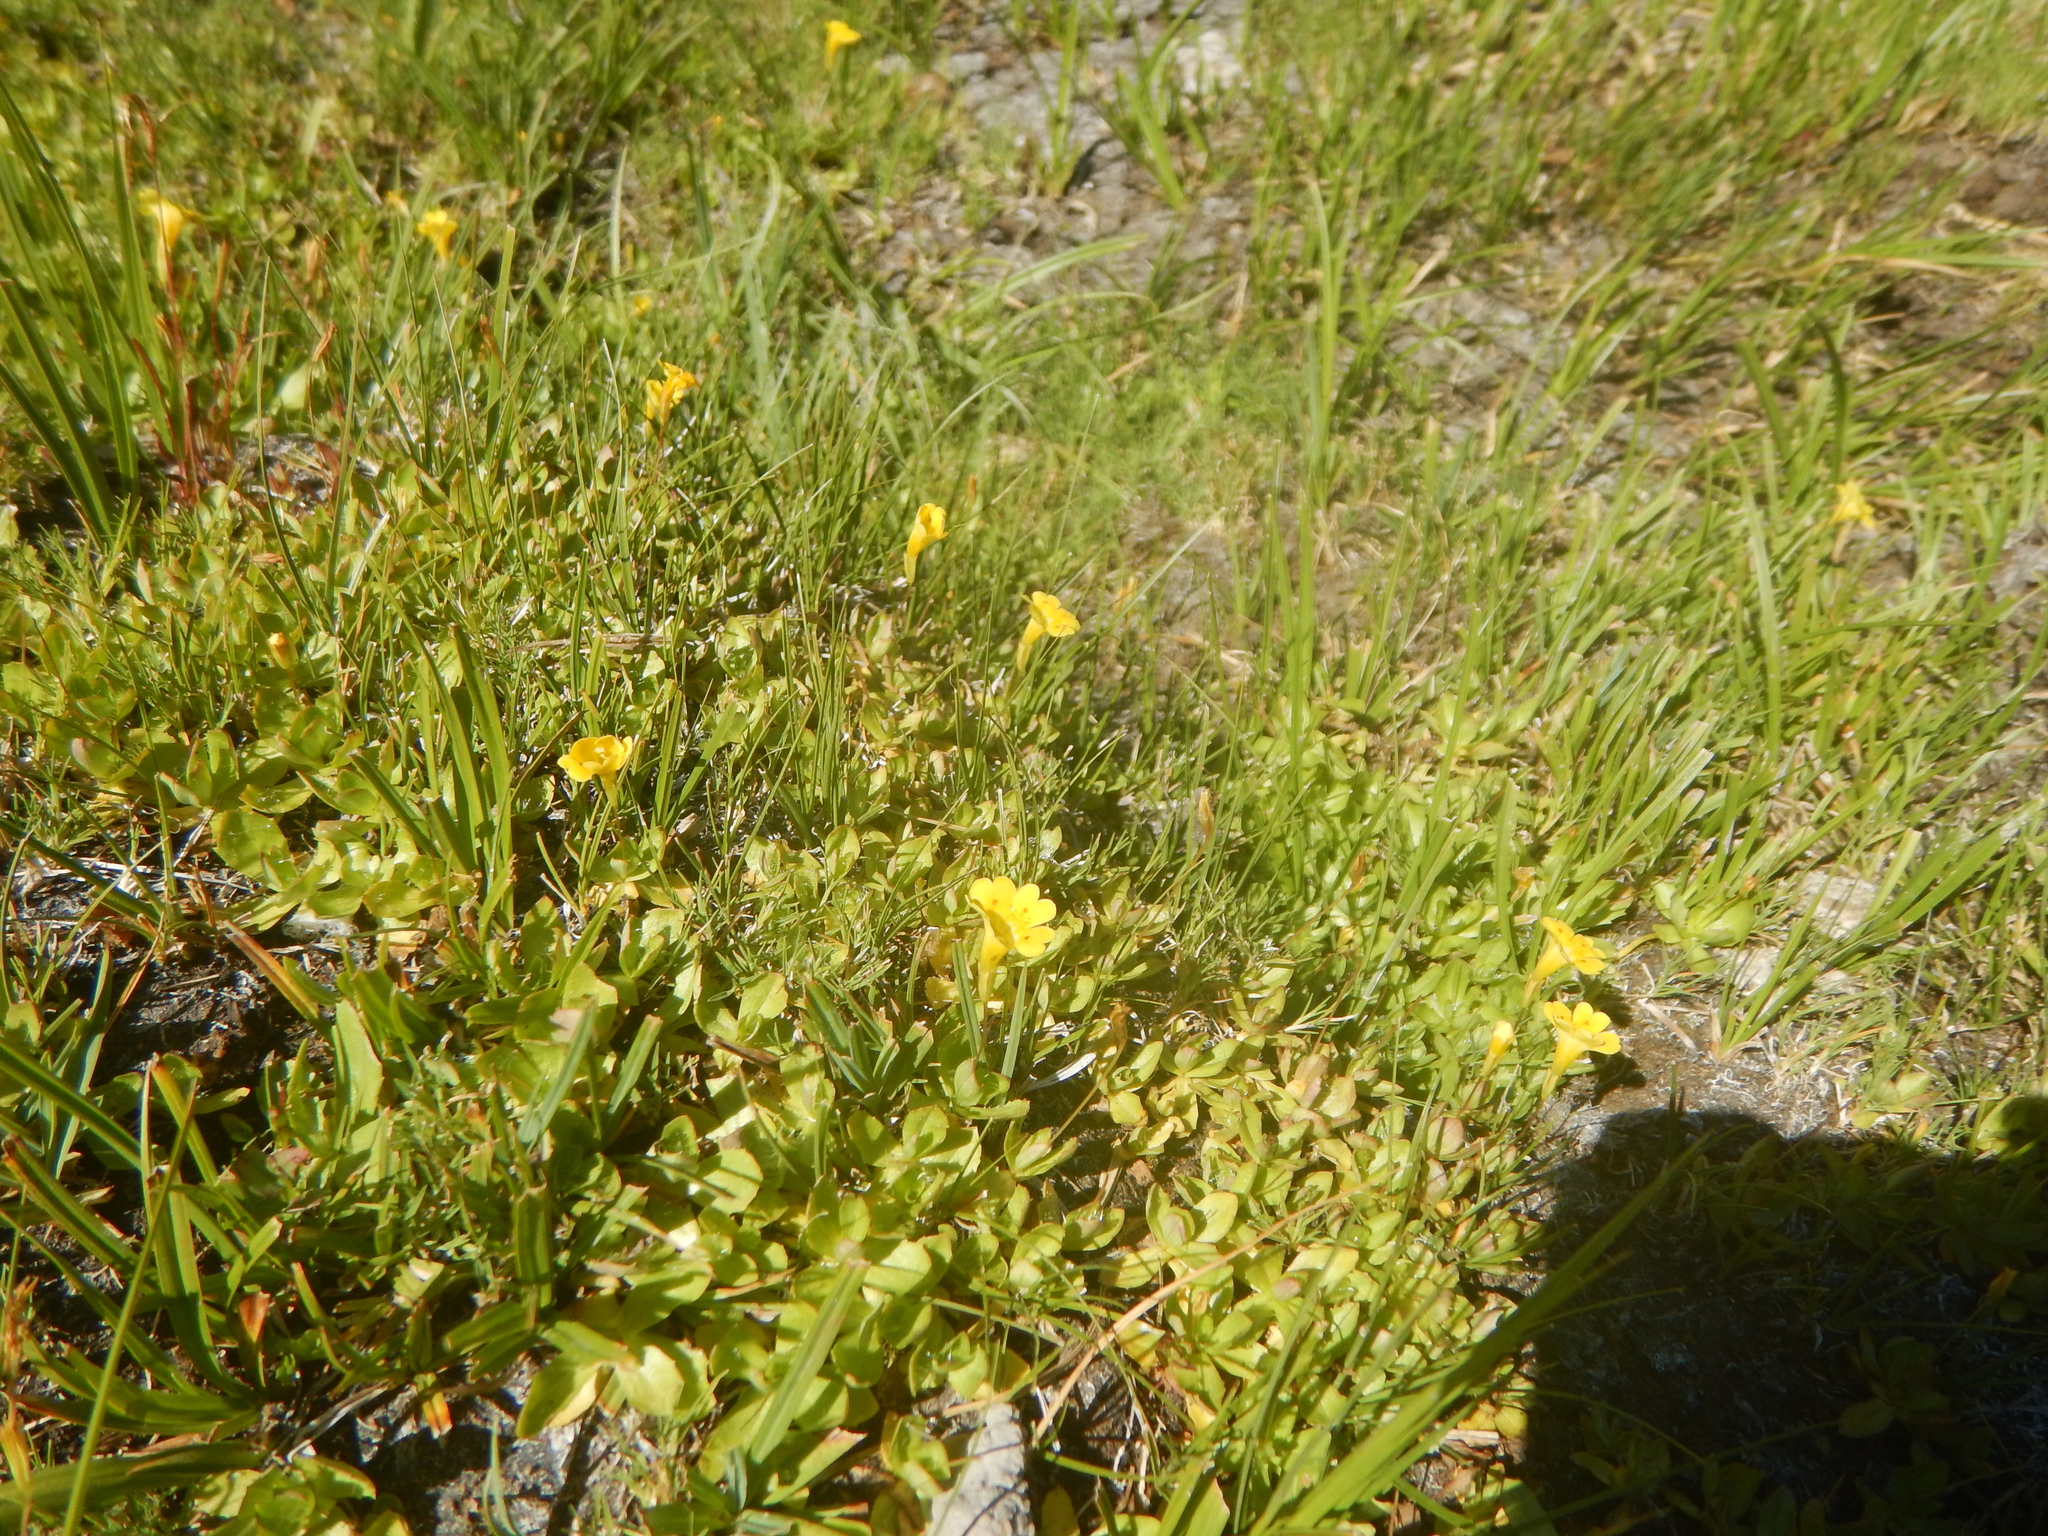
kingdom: Plantae
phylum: Tracheophyta
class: Magnoliopsida
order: Lamiales
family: Phrymaceae
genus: Erythranthe
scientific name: Erythranthe primuloides
